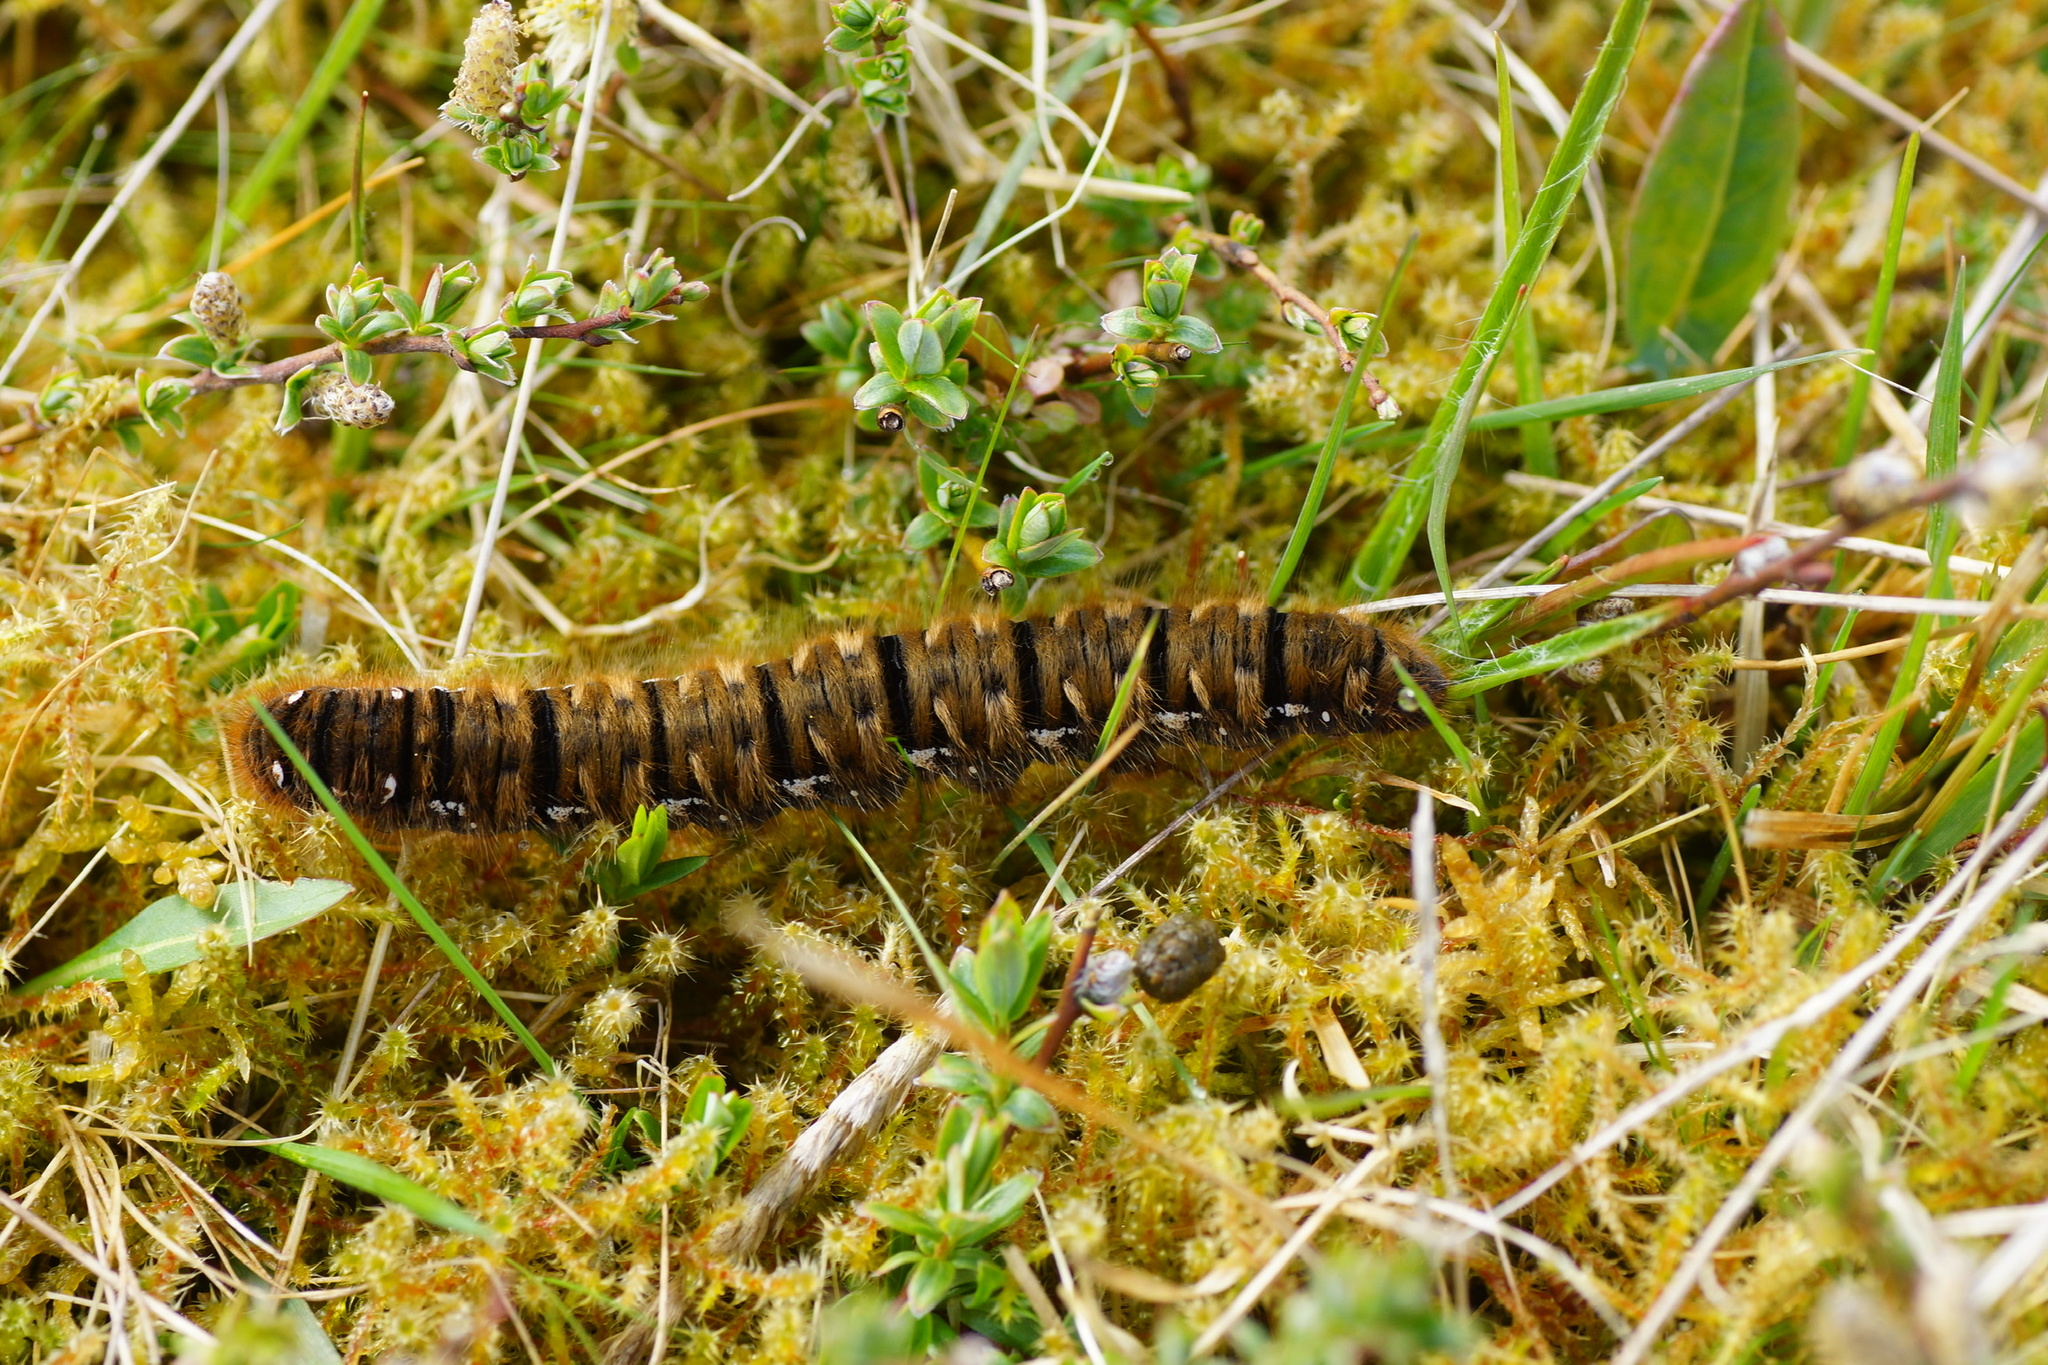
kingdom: Animalia
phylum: Arthropoda
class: Insecta
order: Lepidoptera
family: Lasiocampidae
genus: Lasiocampa
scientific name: Lasiocampa quercus
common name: Oak eggar
